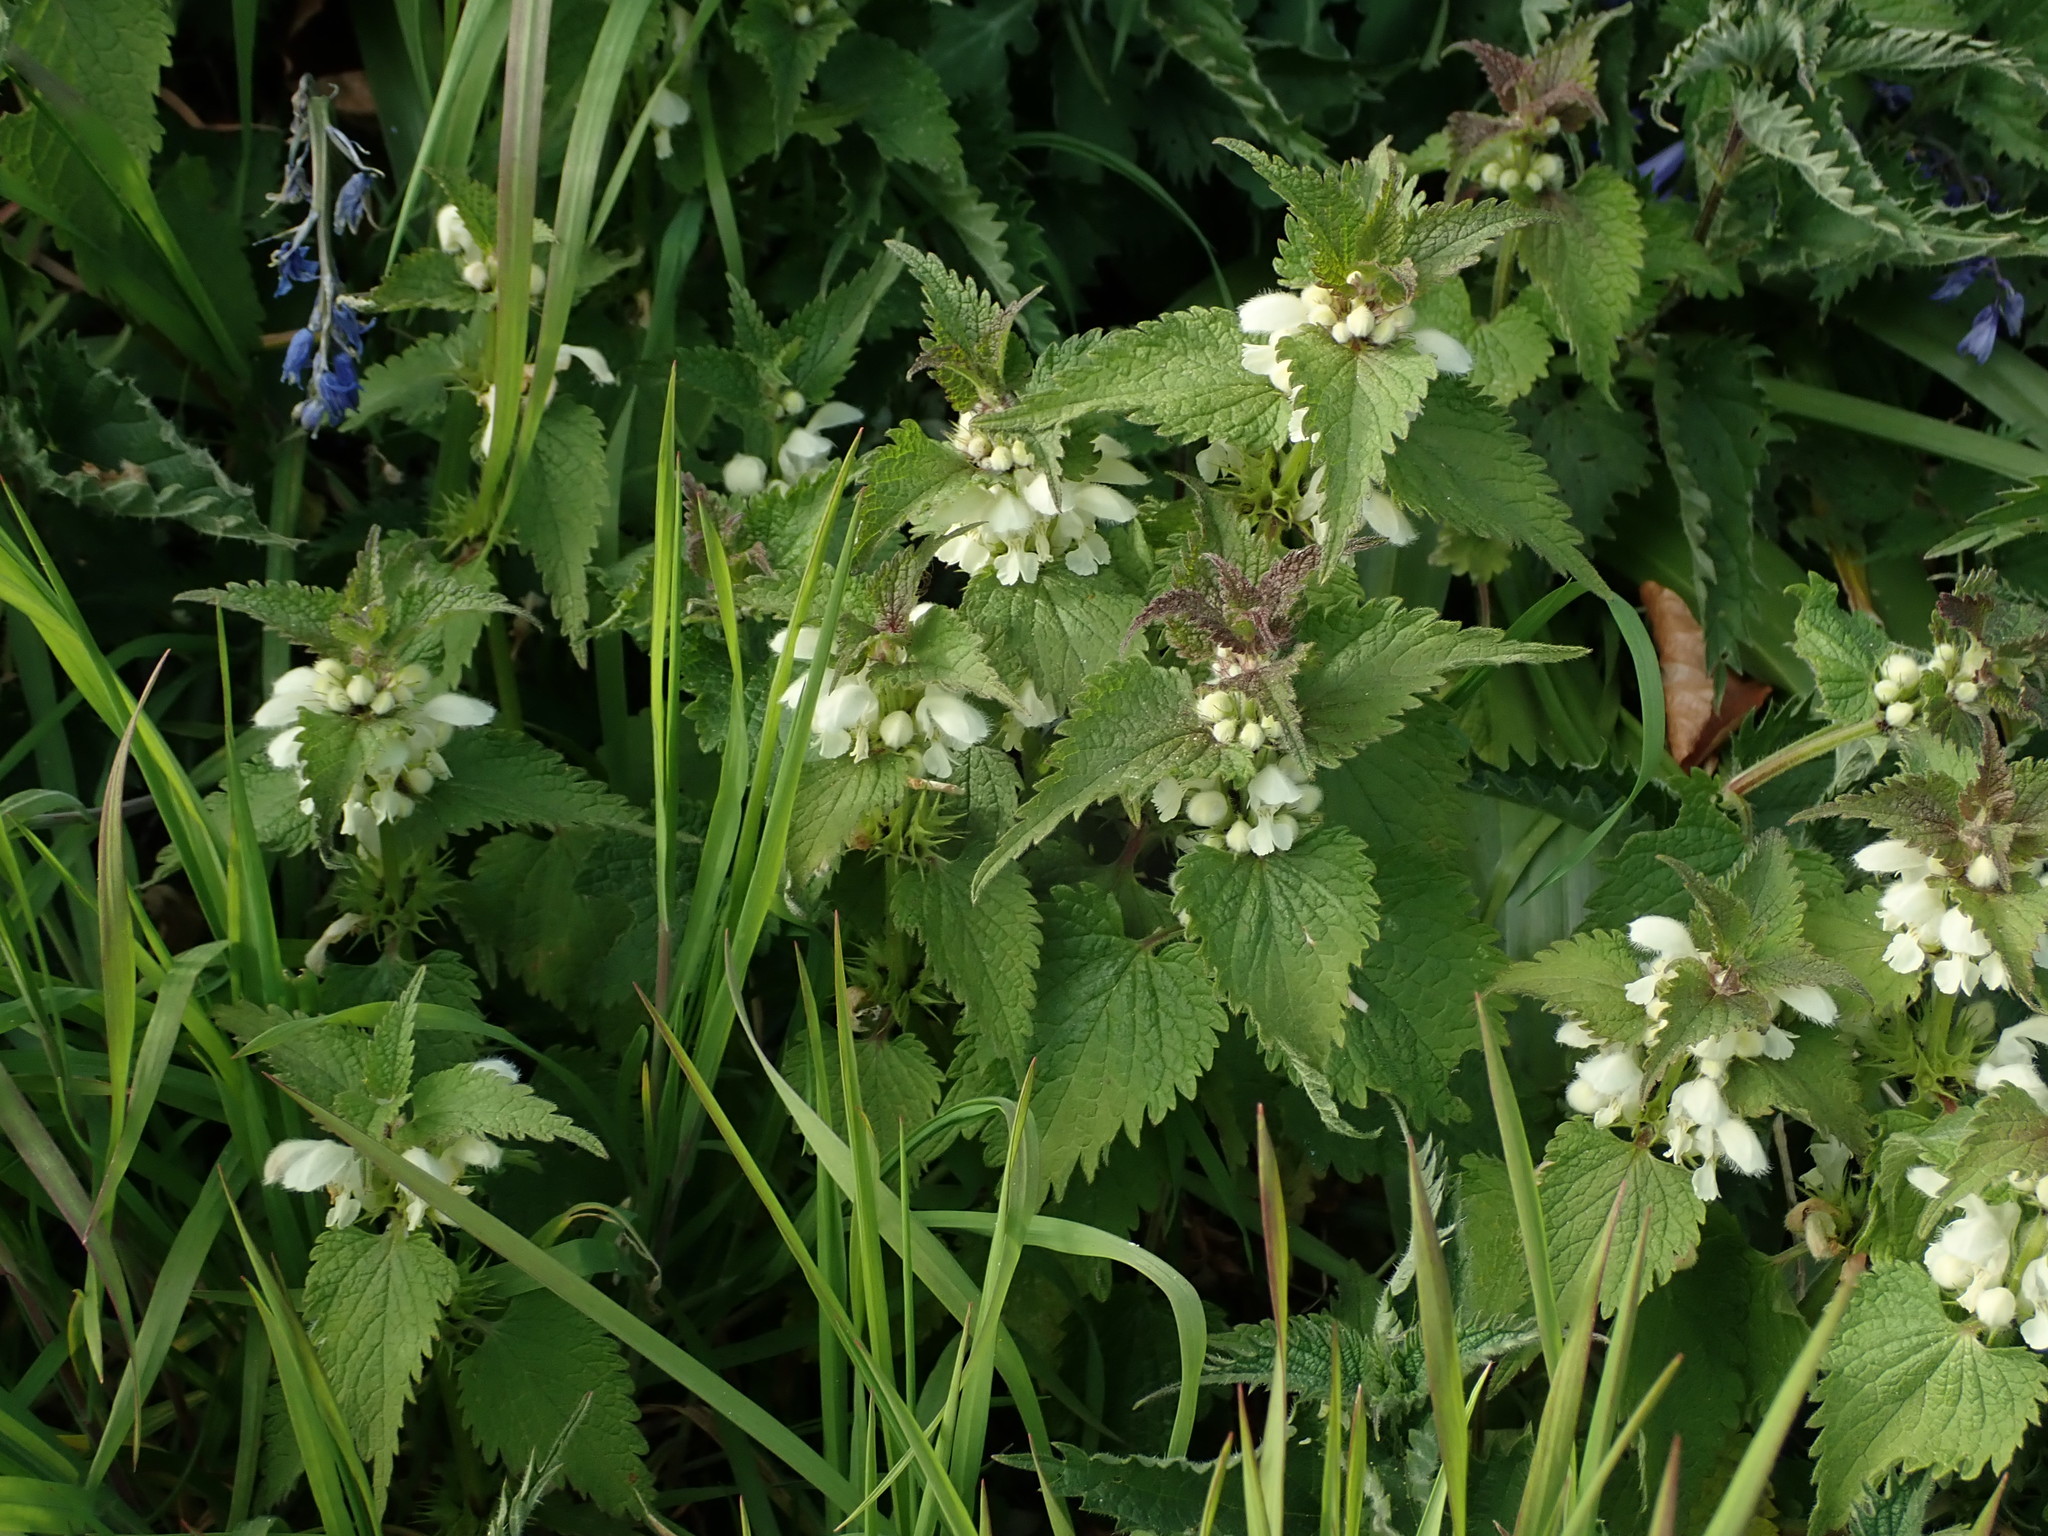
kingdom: Plantae
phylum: Tracheophyta
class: Magnoliopsida
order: Lamiales
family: Lamiaceae
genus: Lamium
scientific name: Lamium album
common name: White dead-nettle
